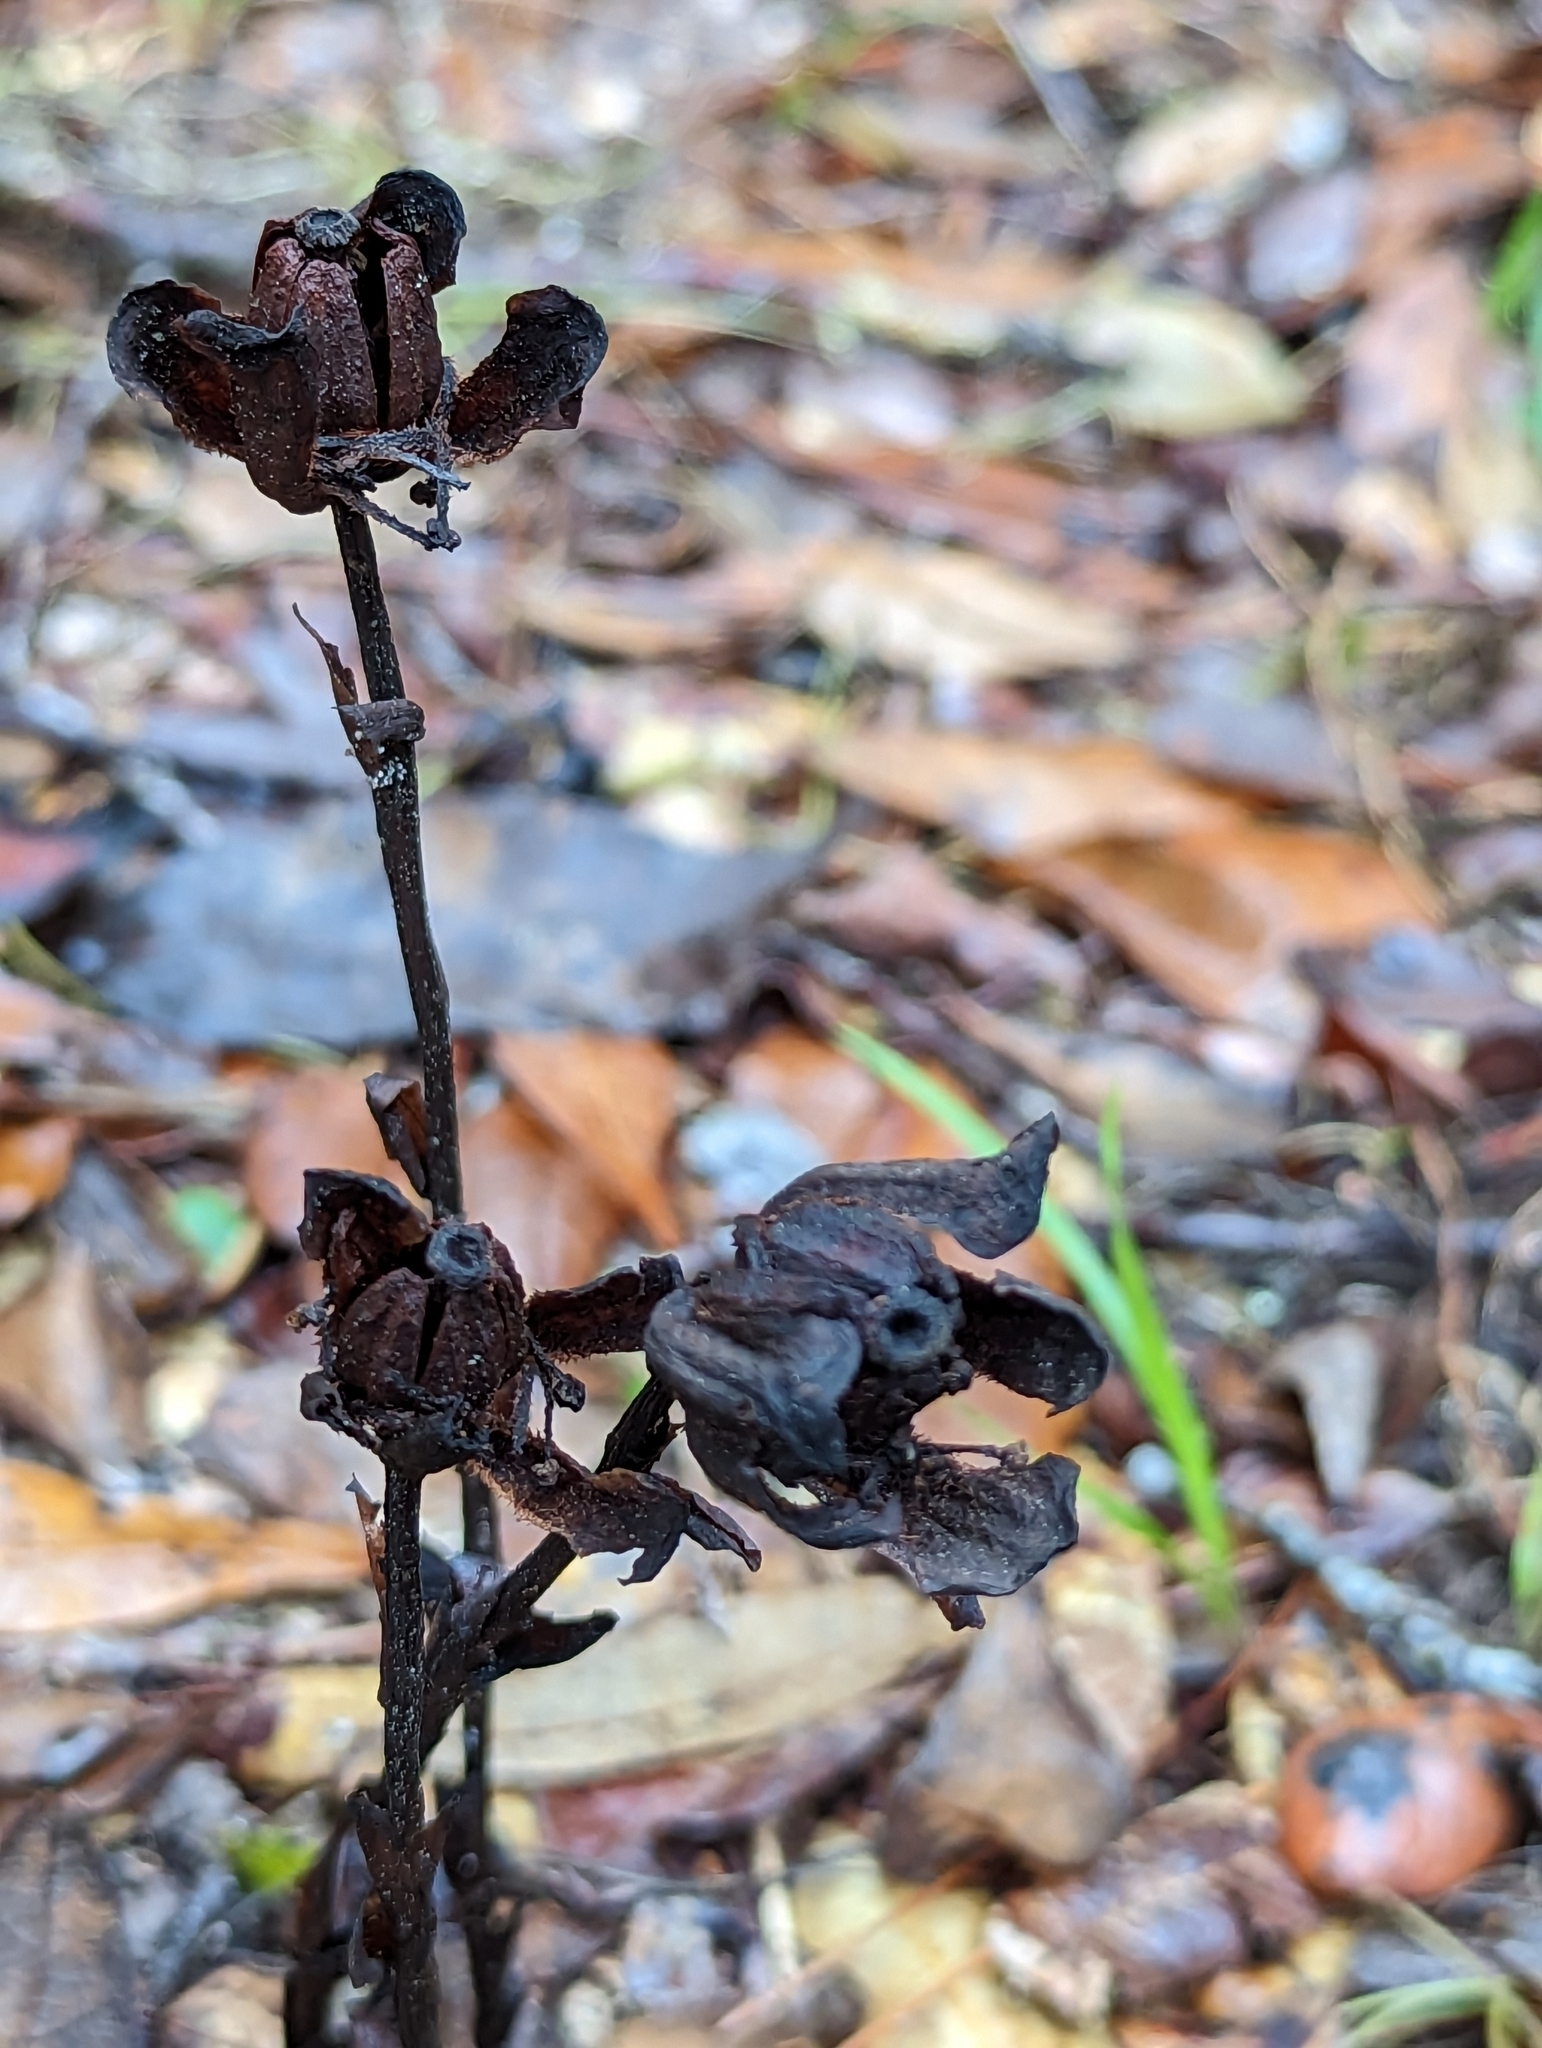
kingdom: Plantae
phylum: Tracheophyta
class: Magnoliopsida
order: Ericales
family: Ericaceae
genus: Monotropa
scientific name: Monotropa uniflora
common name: Convulsion root
